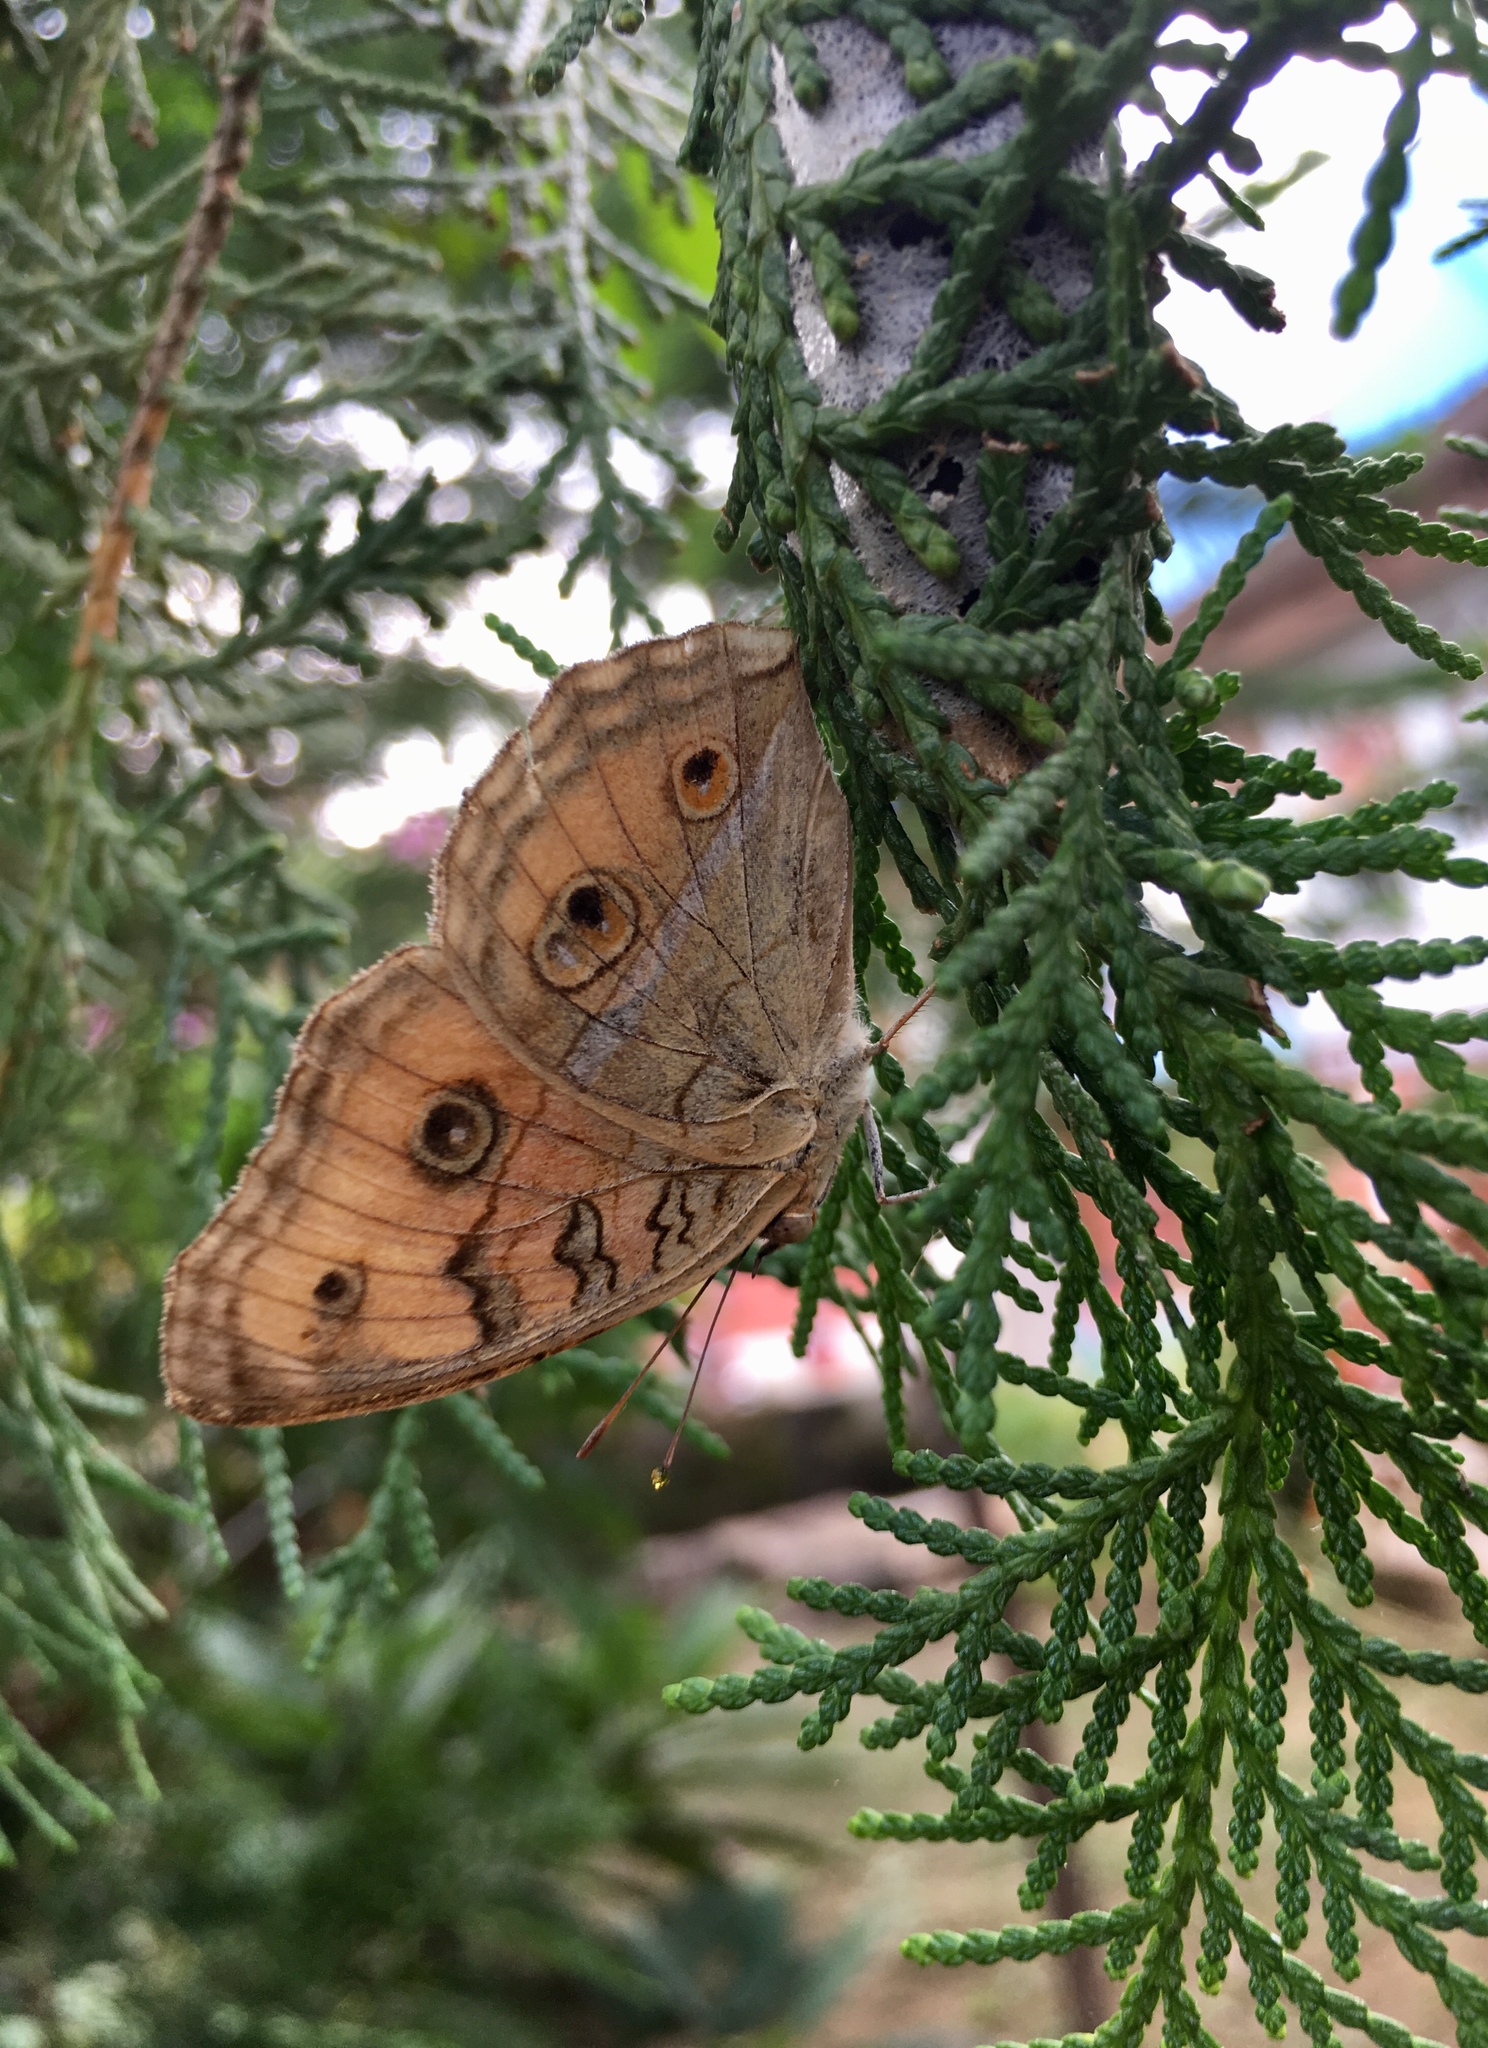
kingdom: Animalia
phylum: Arthropoda
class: Insecta
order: Lepidoptera
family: Nymphalidae
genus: Junonia
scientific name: Junonia almana
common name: Peacock pansy
